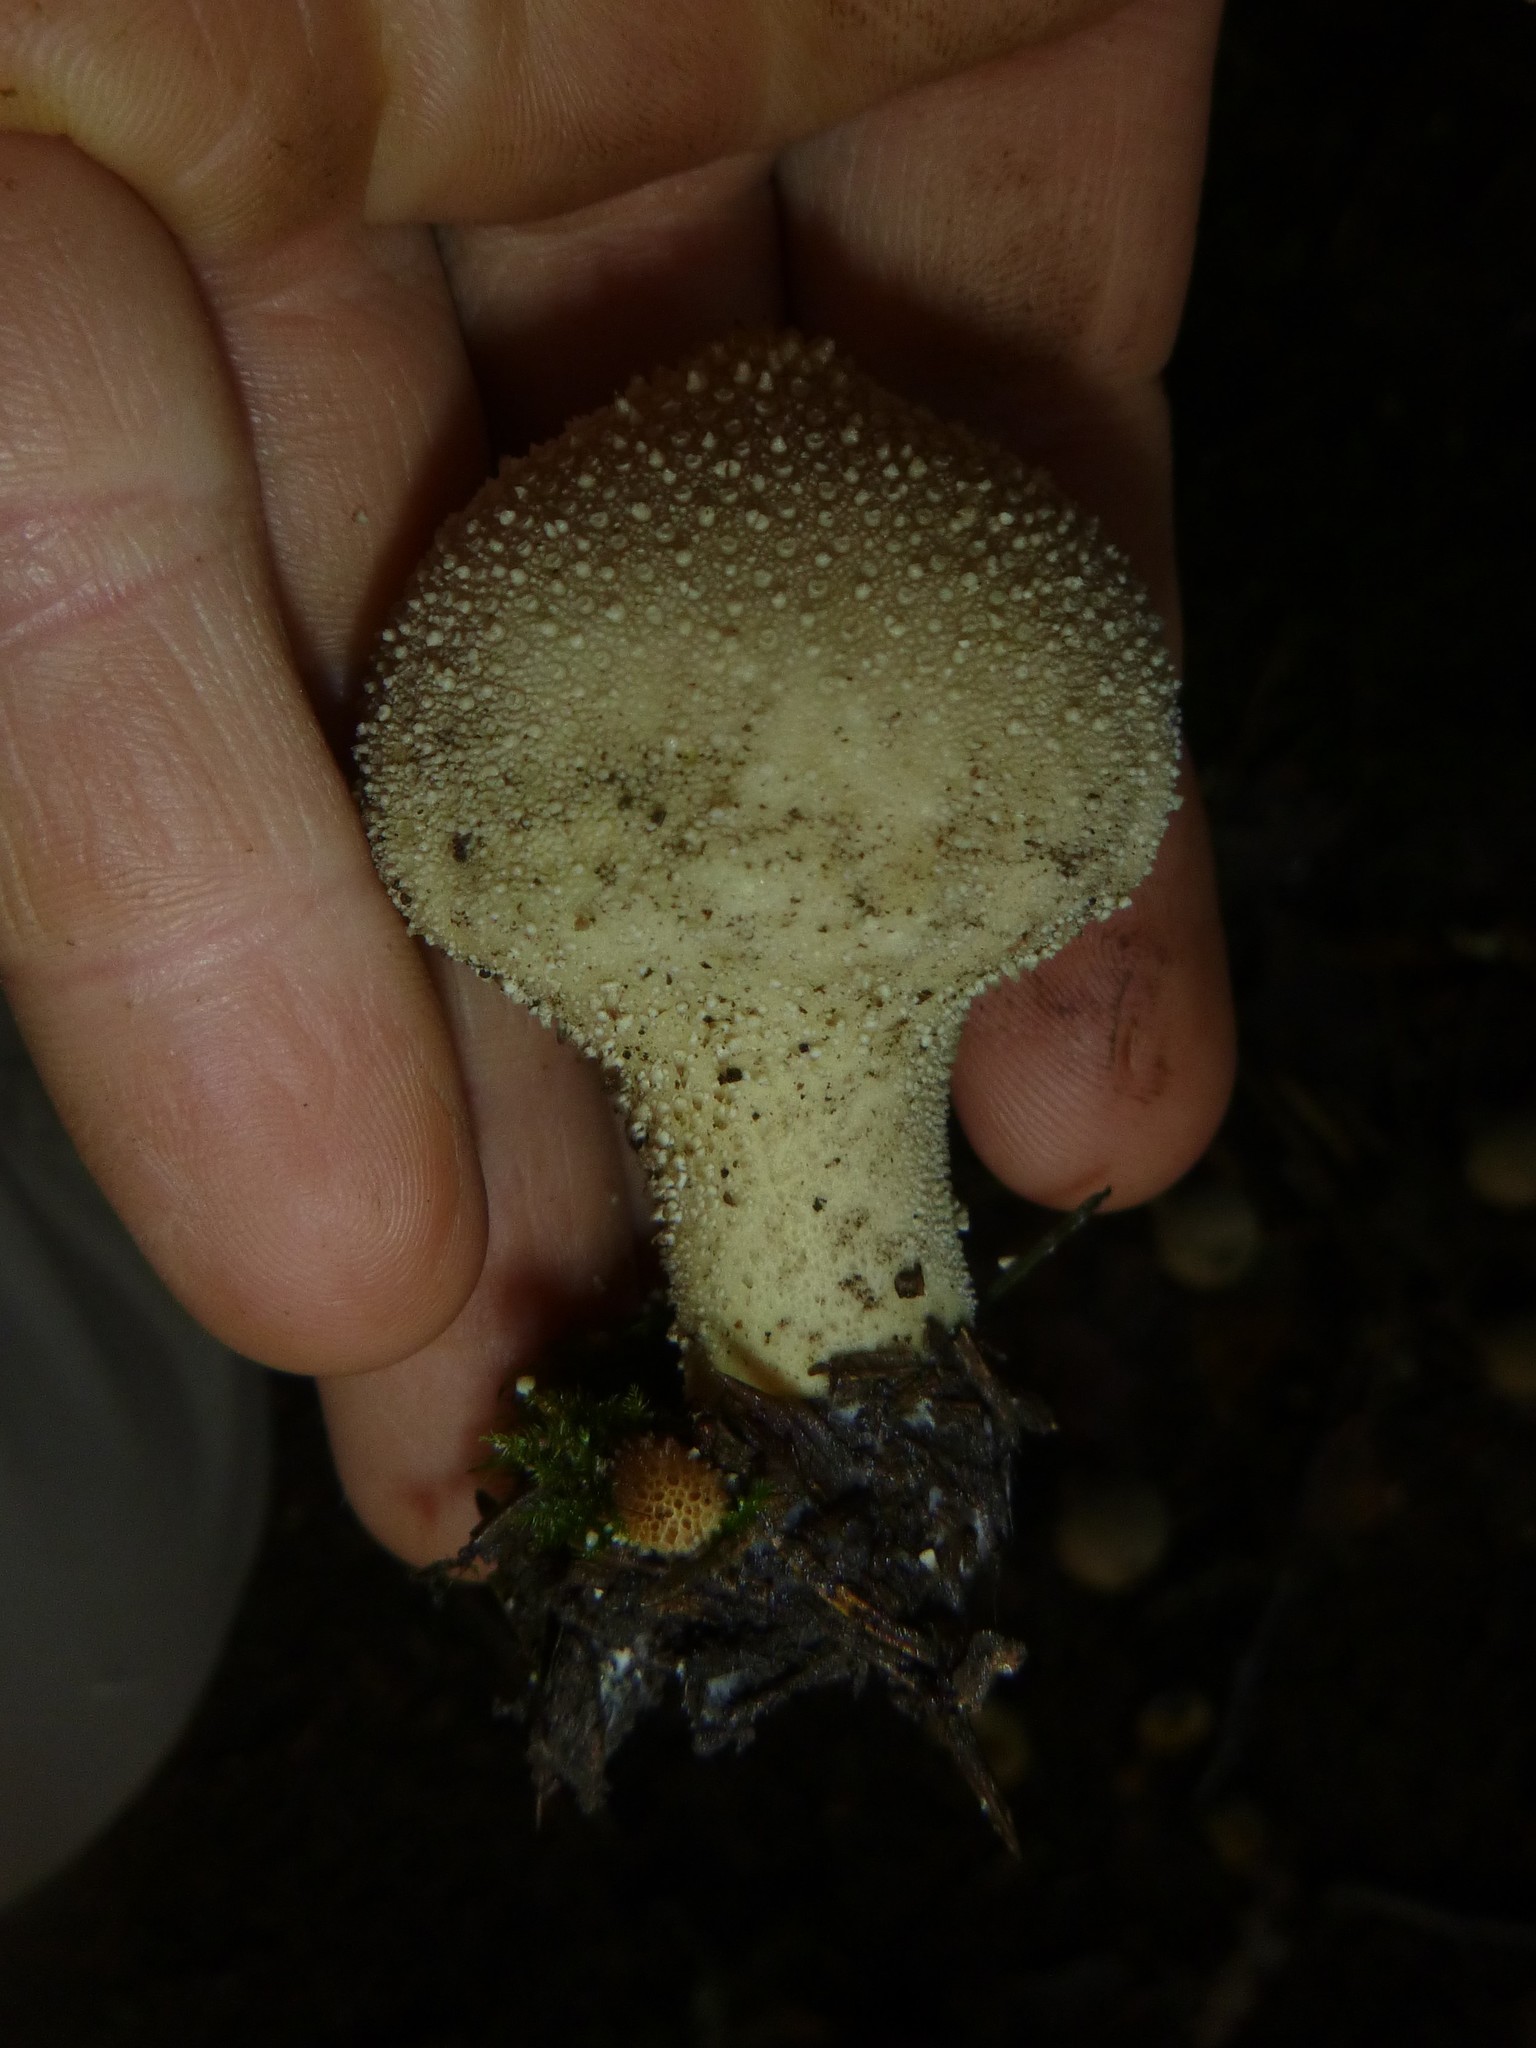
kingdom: Fungi
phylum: Basidiomycota
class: Agaricomycetes
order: Agaricales
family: Lycoperdaceae
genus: Lycoperdon
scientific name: Lycoperdon perlatum
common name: Common puffball
